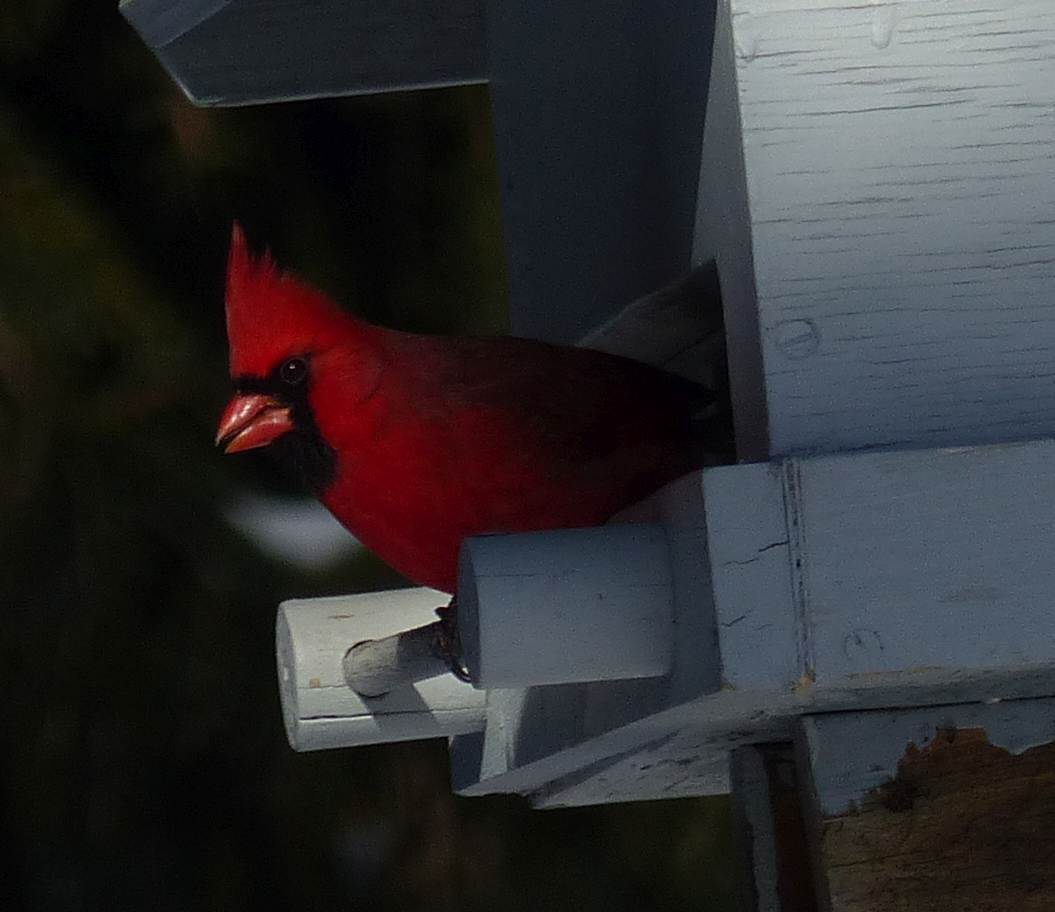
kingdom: Animalia
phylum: Chordata
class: Aves
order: Passeriformes
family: Cardinalidae
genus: Cardinalis
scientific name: Cardinalis cardinalis
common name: Northern cardinal
